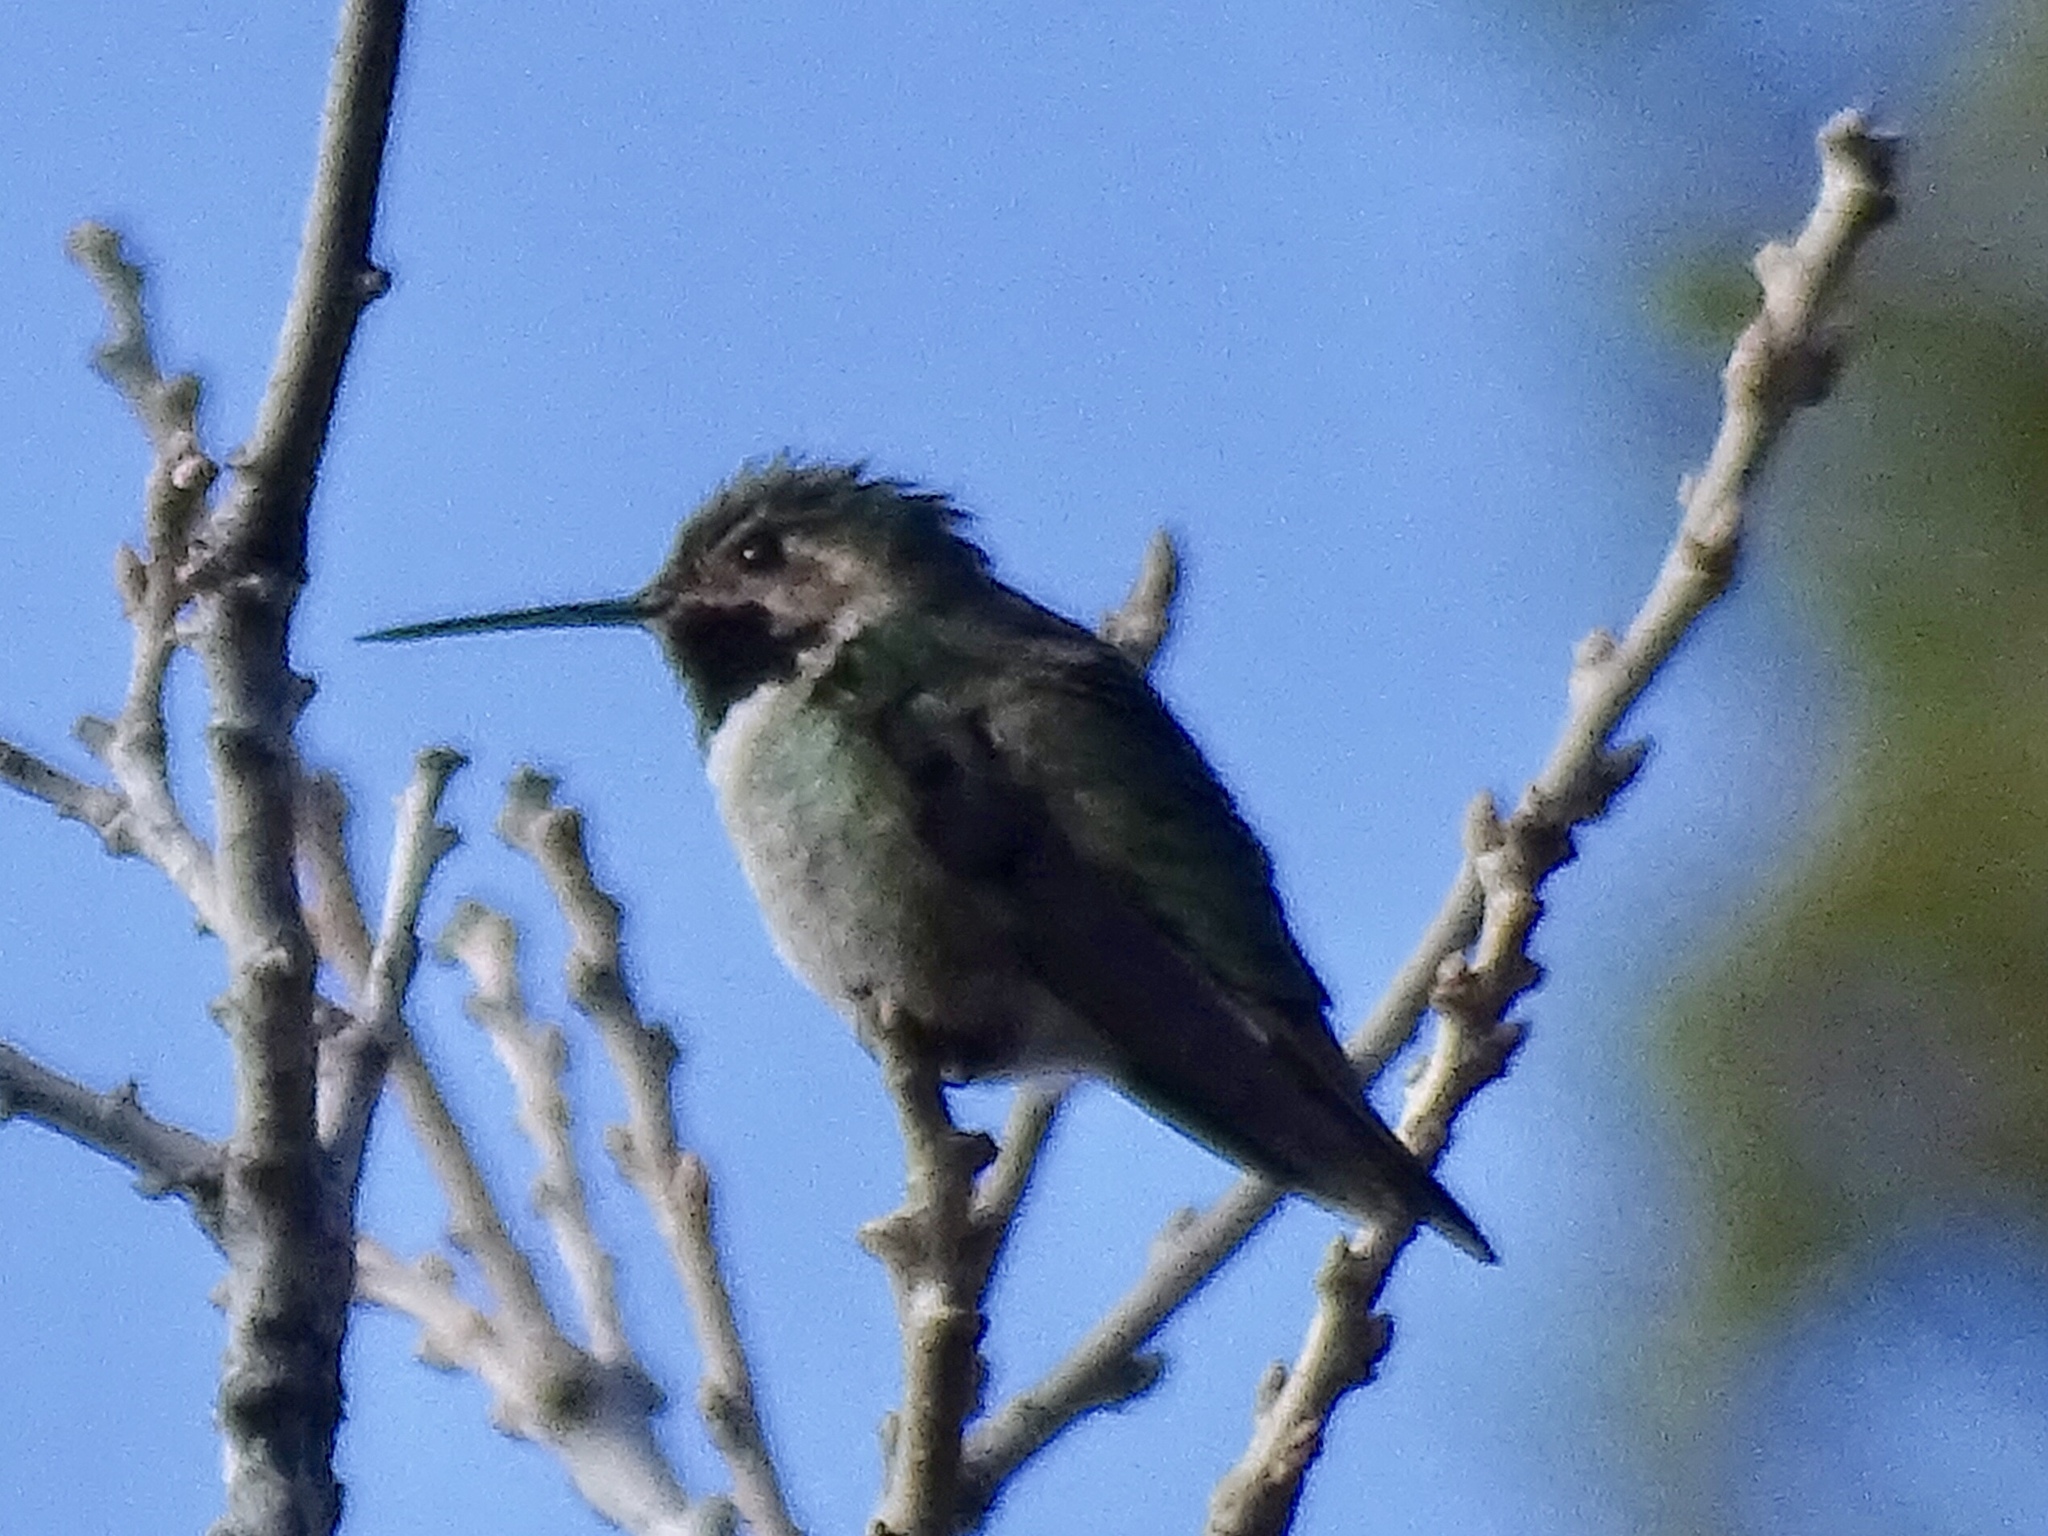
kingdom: Animalia
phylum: Chordata
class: Aves
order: Apodiformes
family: Trochilidae
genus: Selasphorus
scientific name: Selasphorus platycercus
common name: Broad-tailed hummingbird
